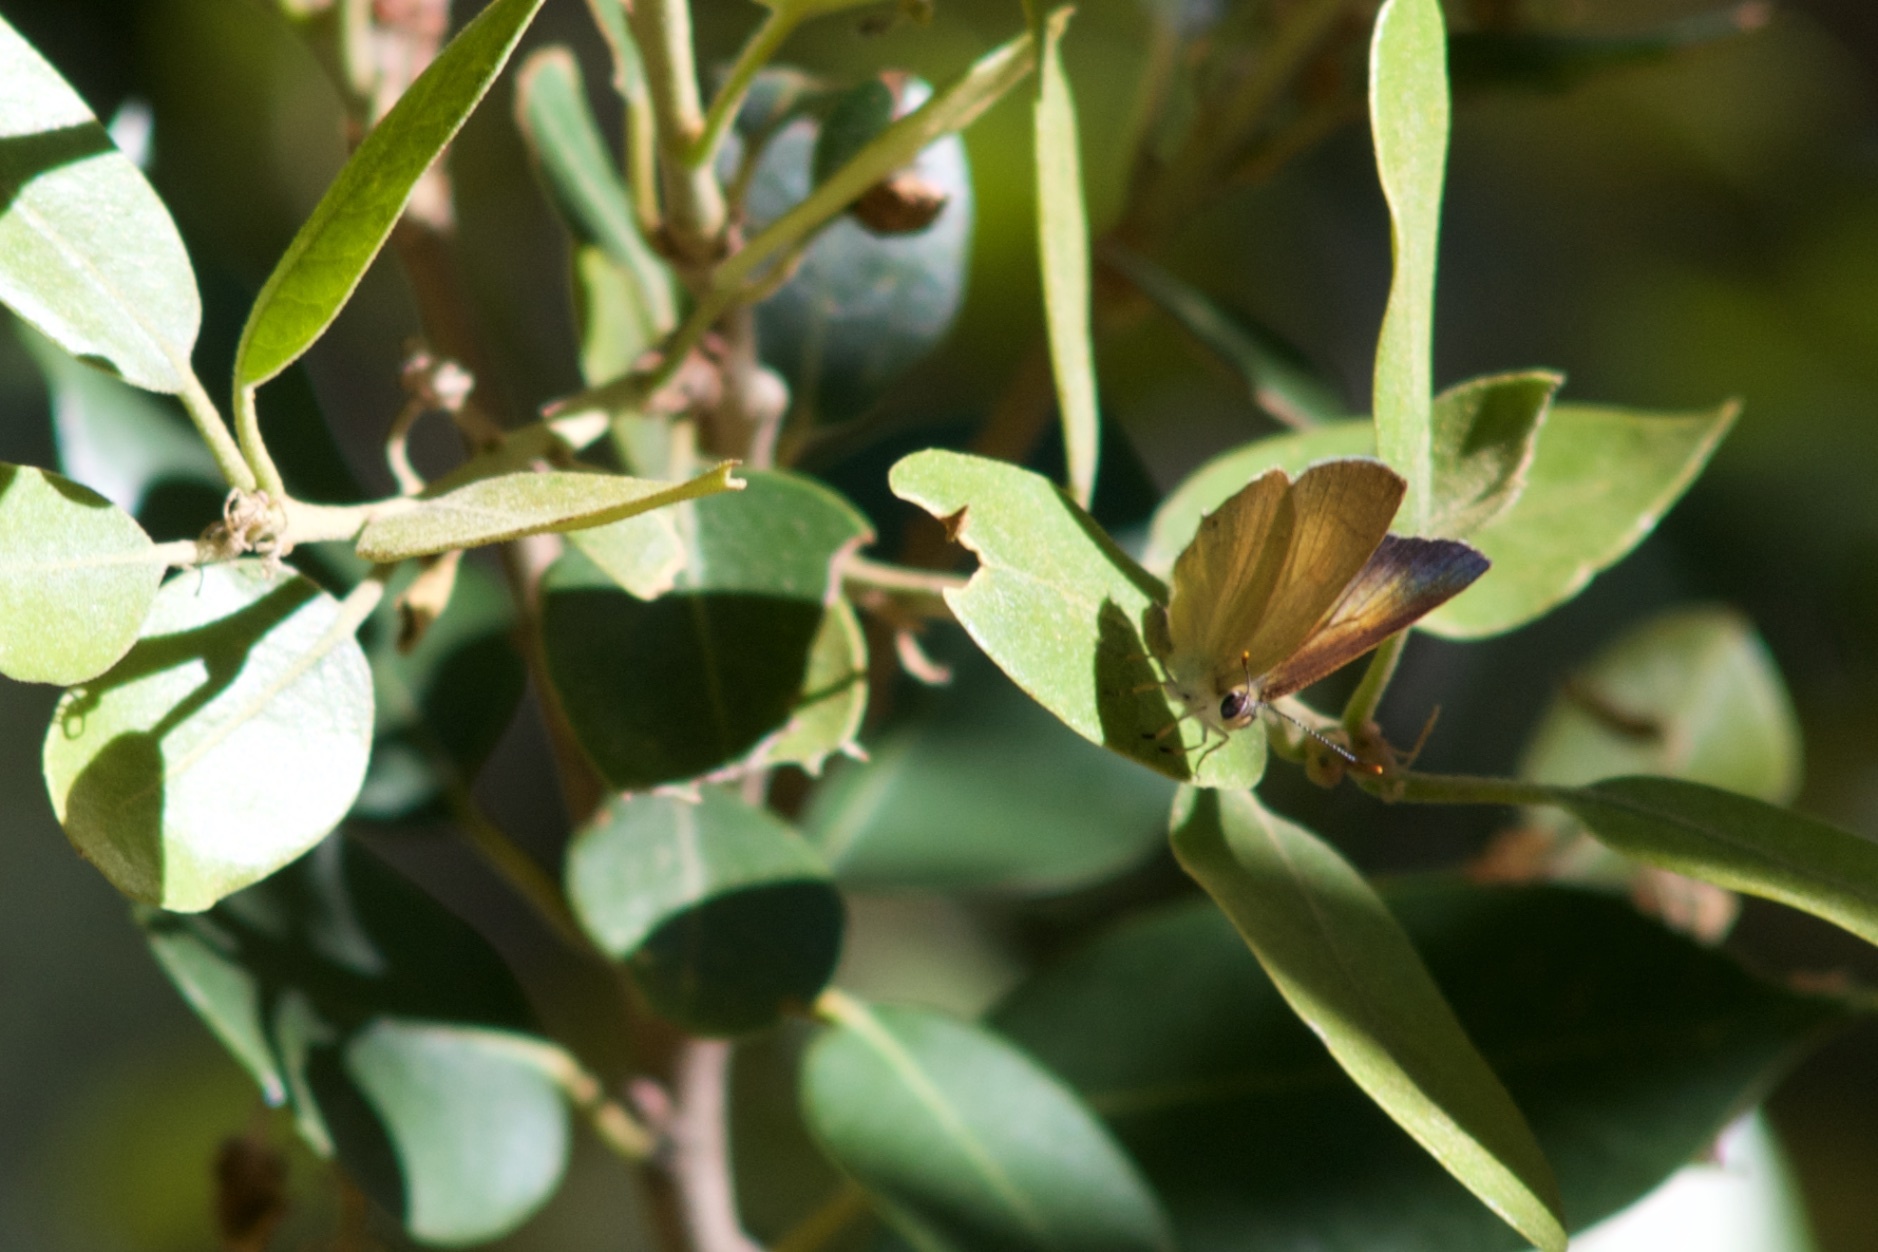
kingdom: Animalia
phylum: Arthropoda
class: Insecta
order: Lepidoptera
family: Lycaenidae
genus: Habrodais
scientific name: Habrodais grunus
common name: Golden hairstreak
